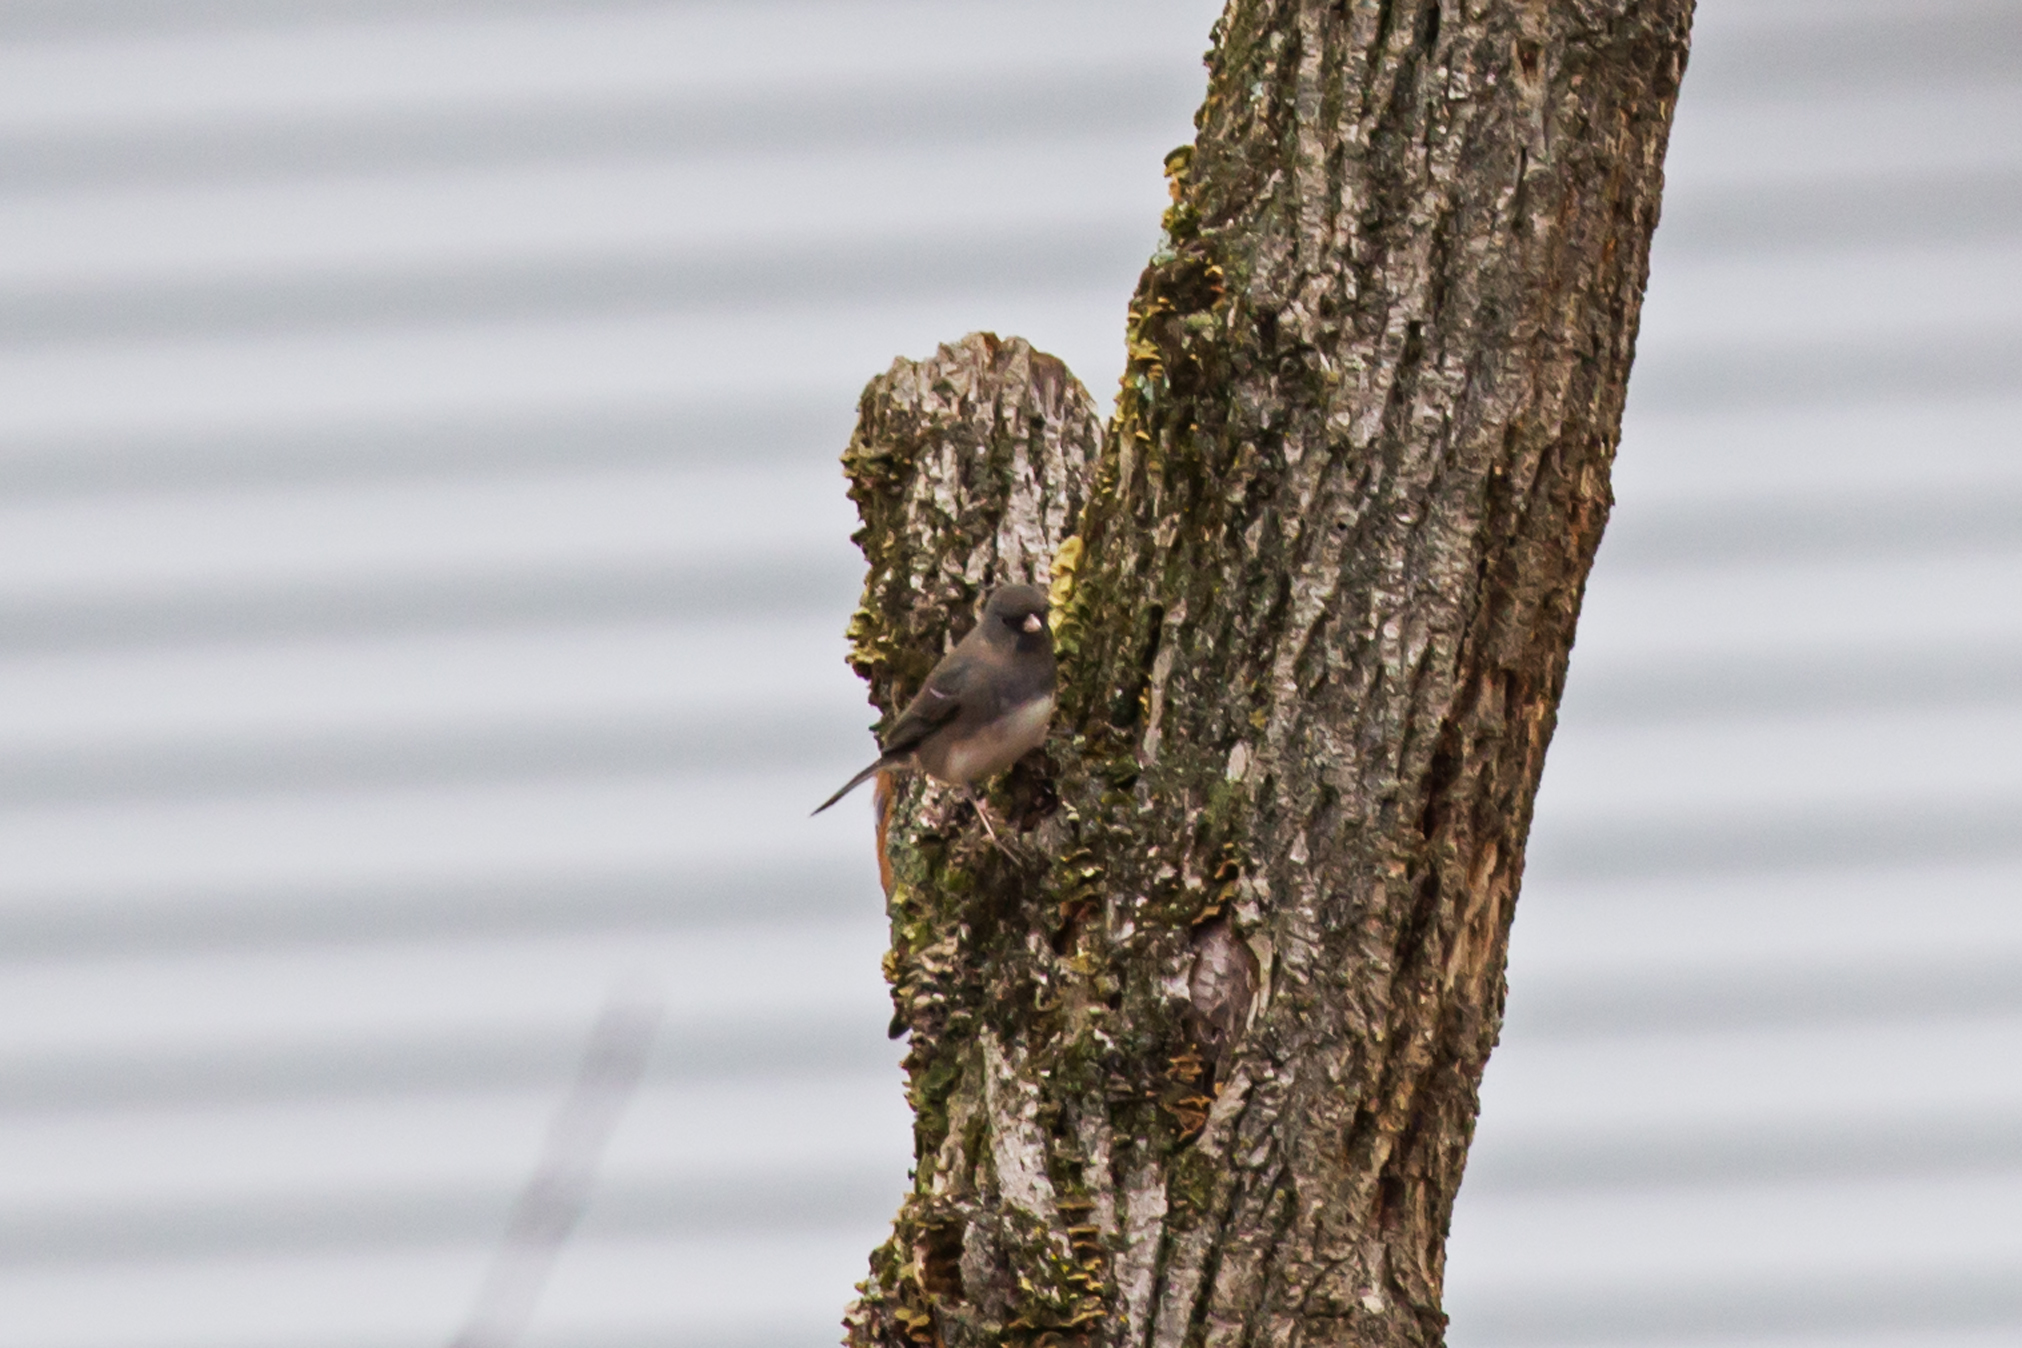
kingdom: Animalia
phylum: Chordata
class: Aves
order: Passeriformes
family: Passerellidae
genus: Junco
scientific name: Junco hyemalis
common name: Dark-eyed junco
